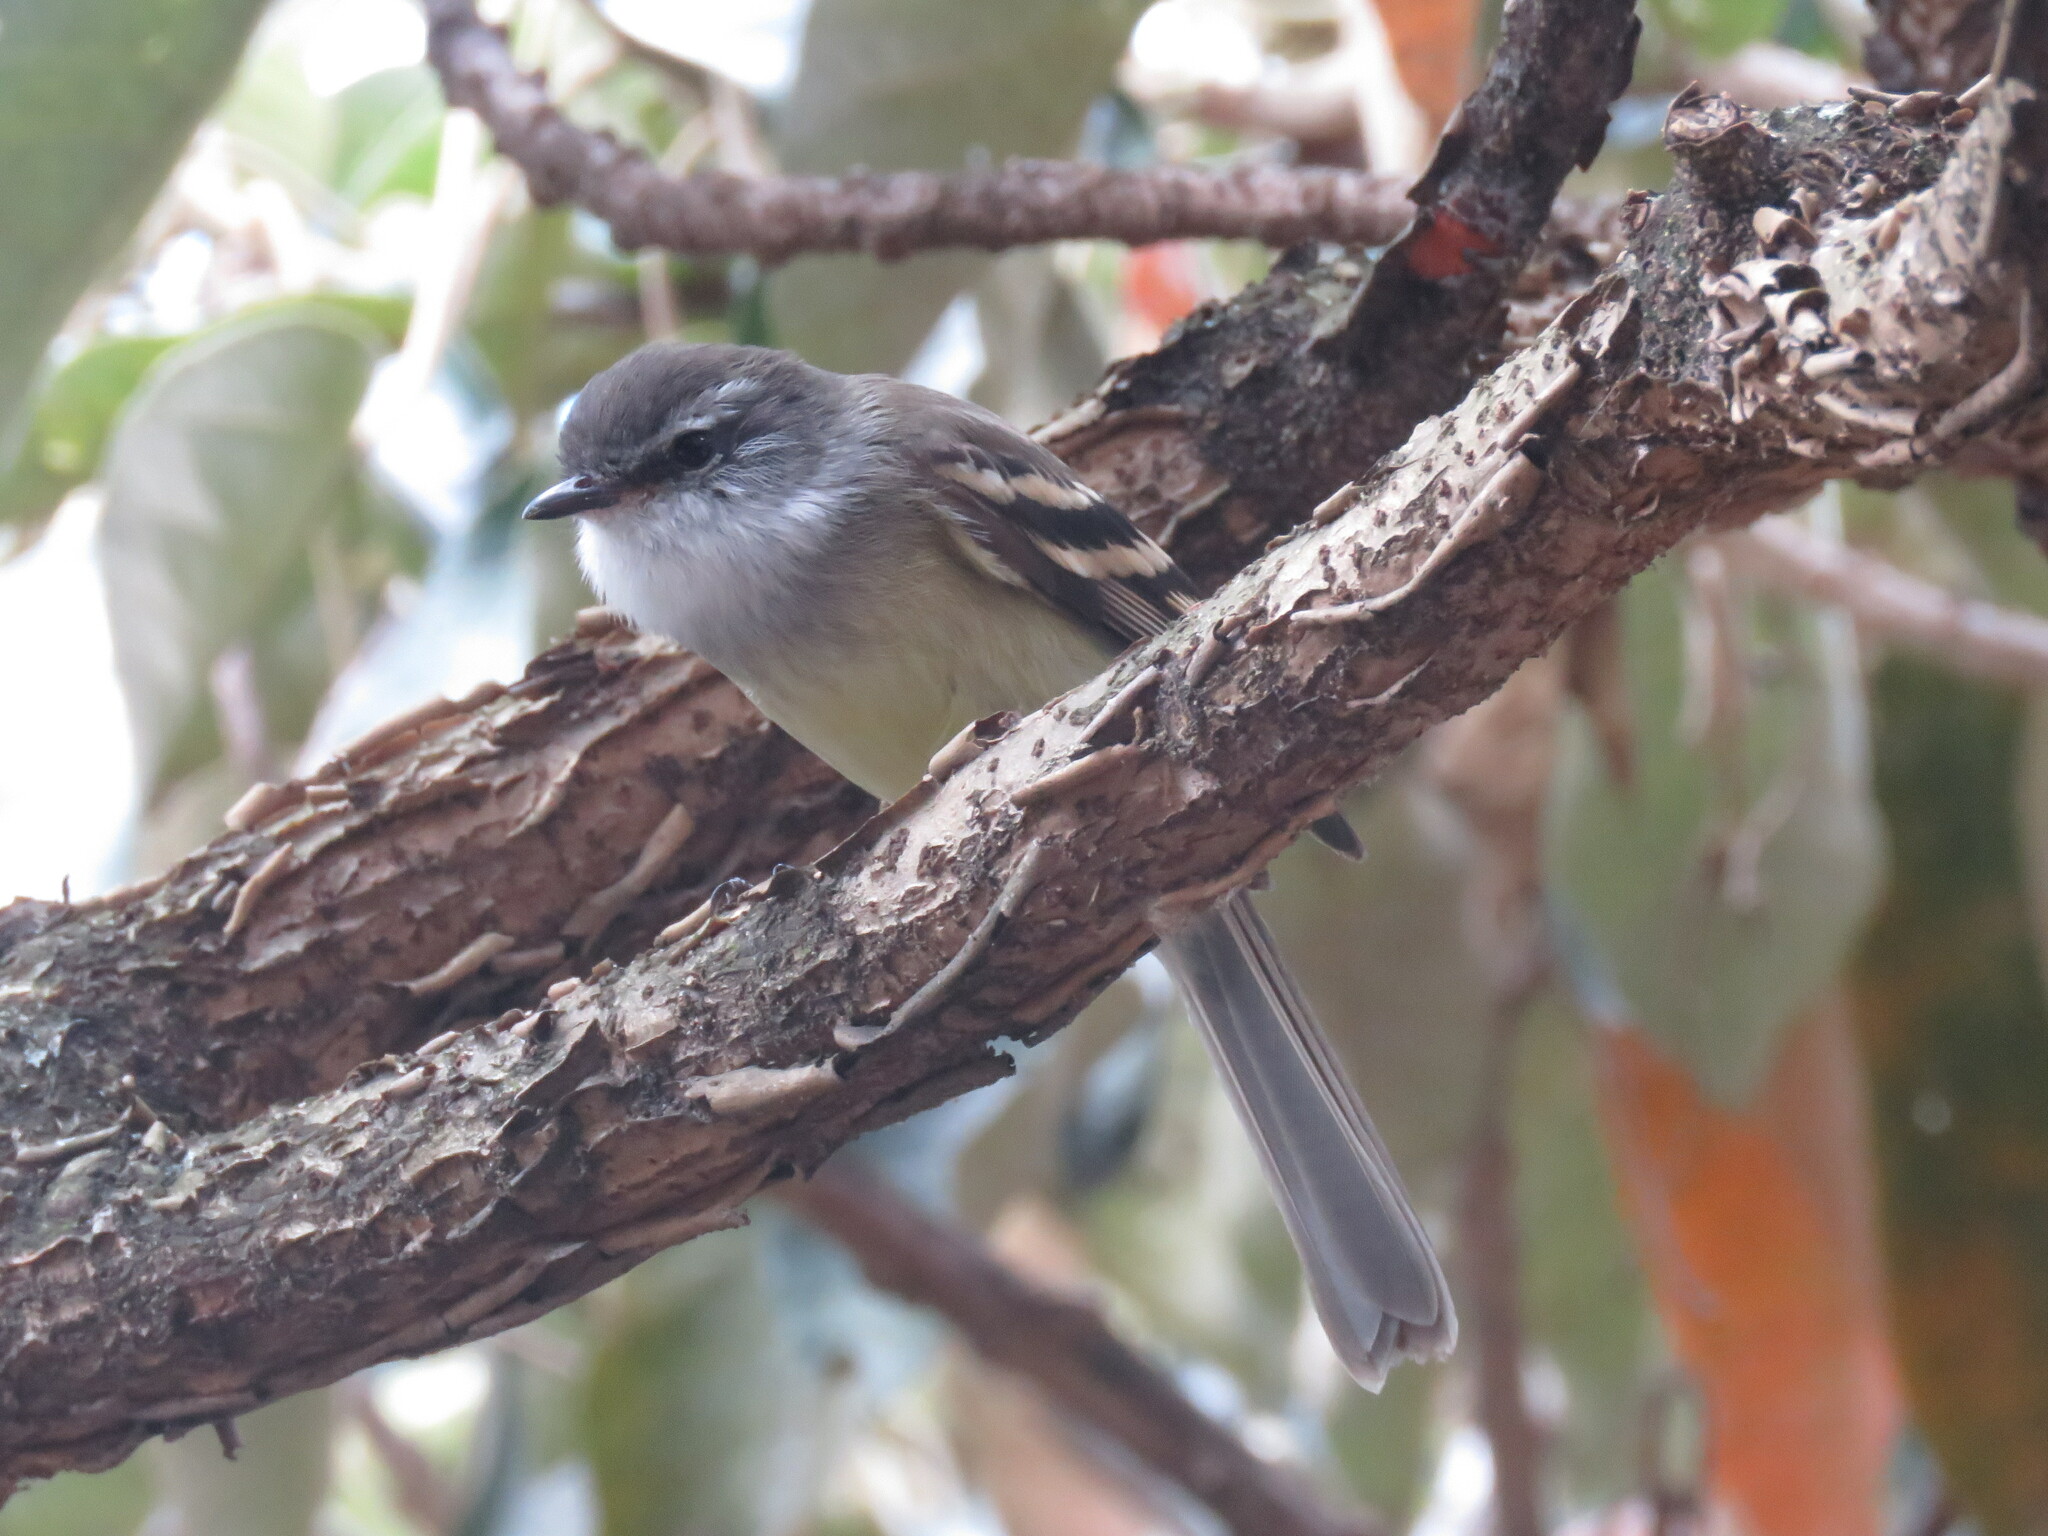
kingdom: Animalia
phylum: Chordata
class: Aves
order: Passeriformes
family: Tyrannidae
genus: Mecocerculus
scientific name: Mecocerculus leucophrys
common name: White-throated tyrannulet
